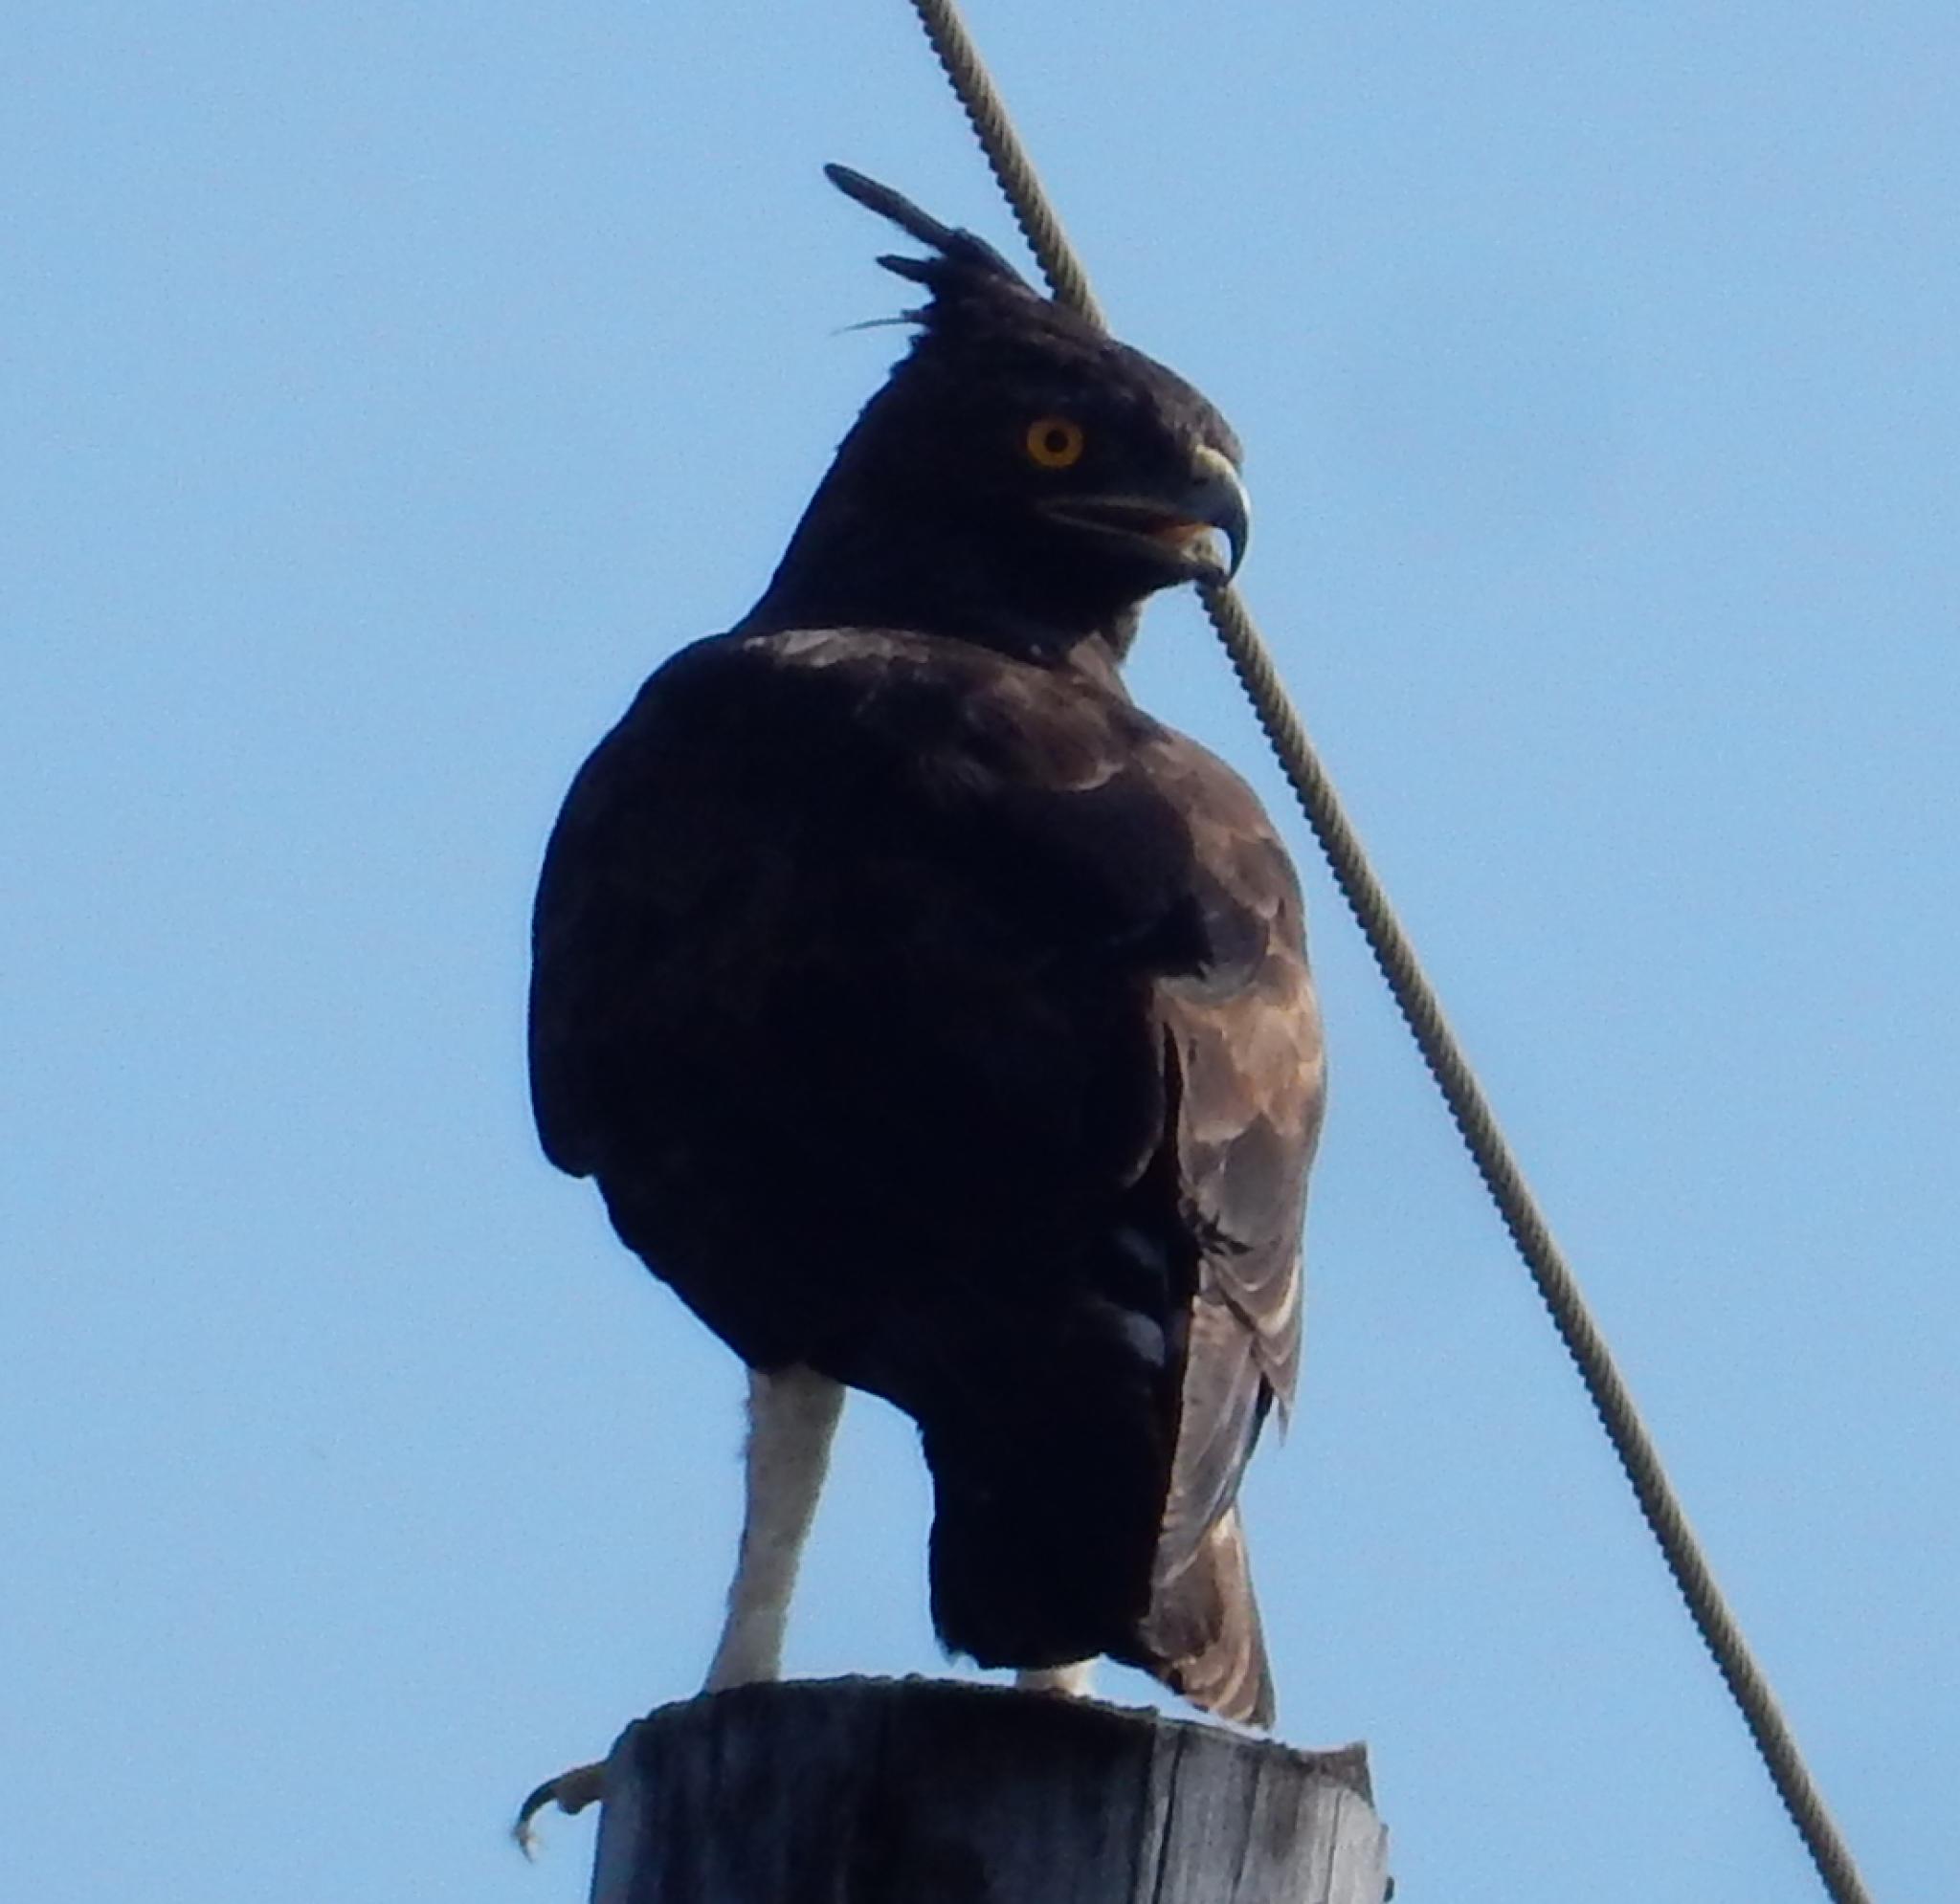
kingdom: Animalia
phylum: Chordata
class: Aves
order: Accipitriformes
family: Accipitridae
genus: Lophaetus
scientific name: Lophaetus occipitalis
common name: Long-crested eagle
